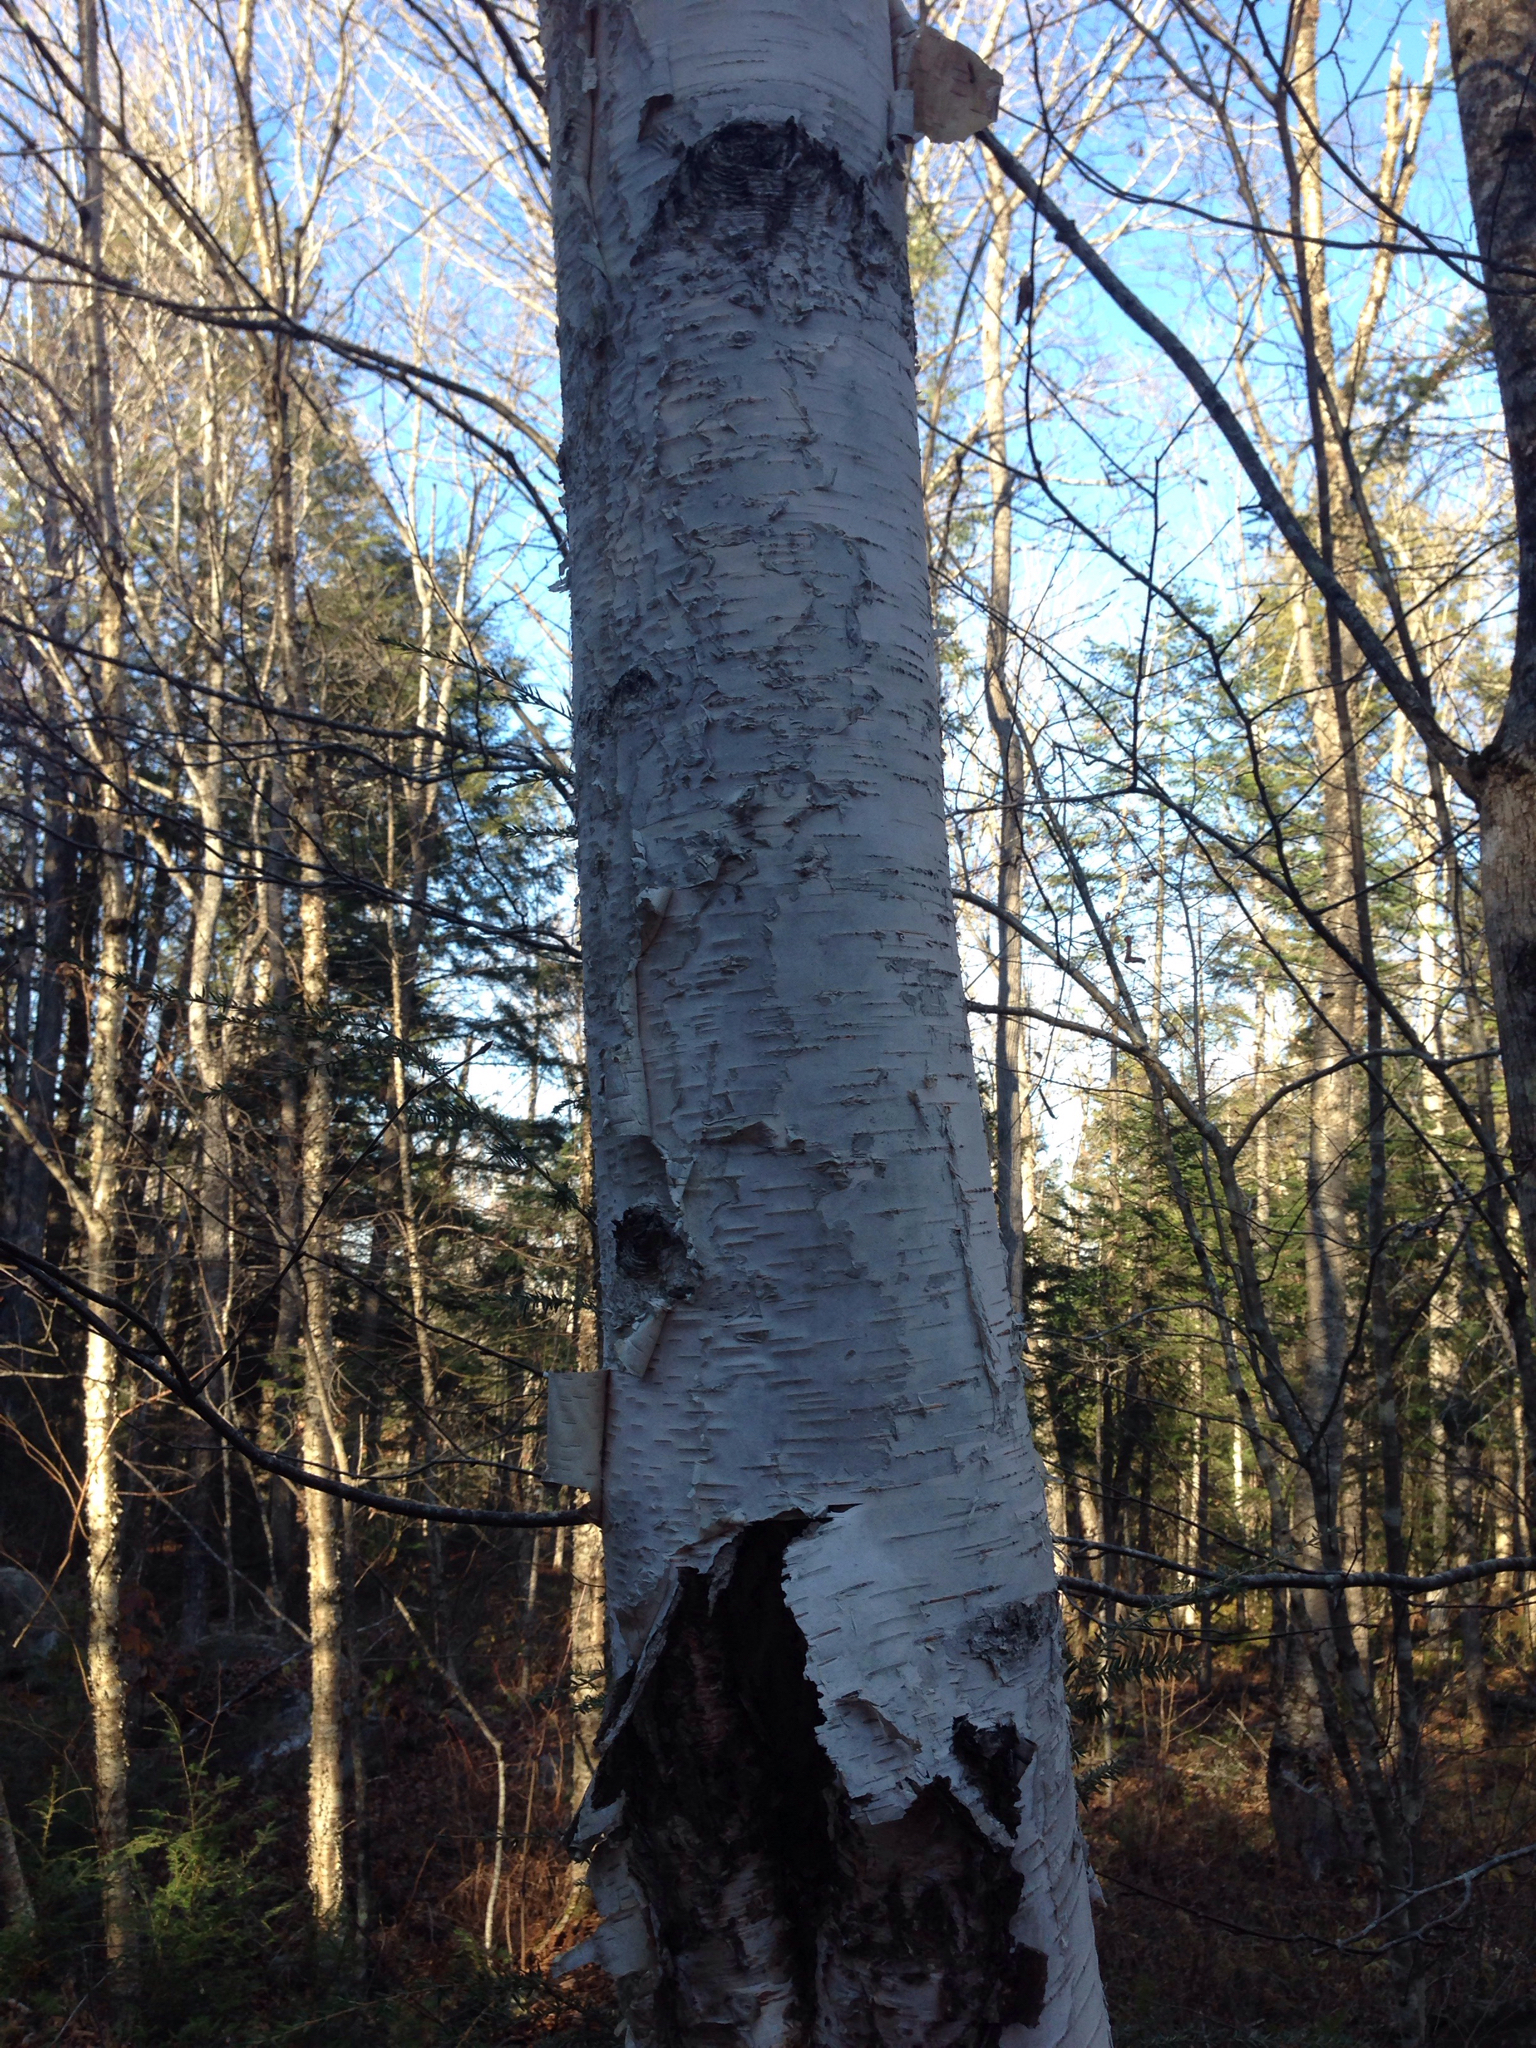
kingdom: Plantae
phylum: Tracheophyta
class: Magnoliopsida
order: Fagales
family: Betulaceae
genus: Betula
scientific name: Betula papyrifera
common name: Paper birch
